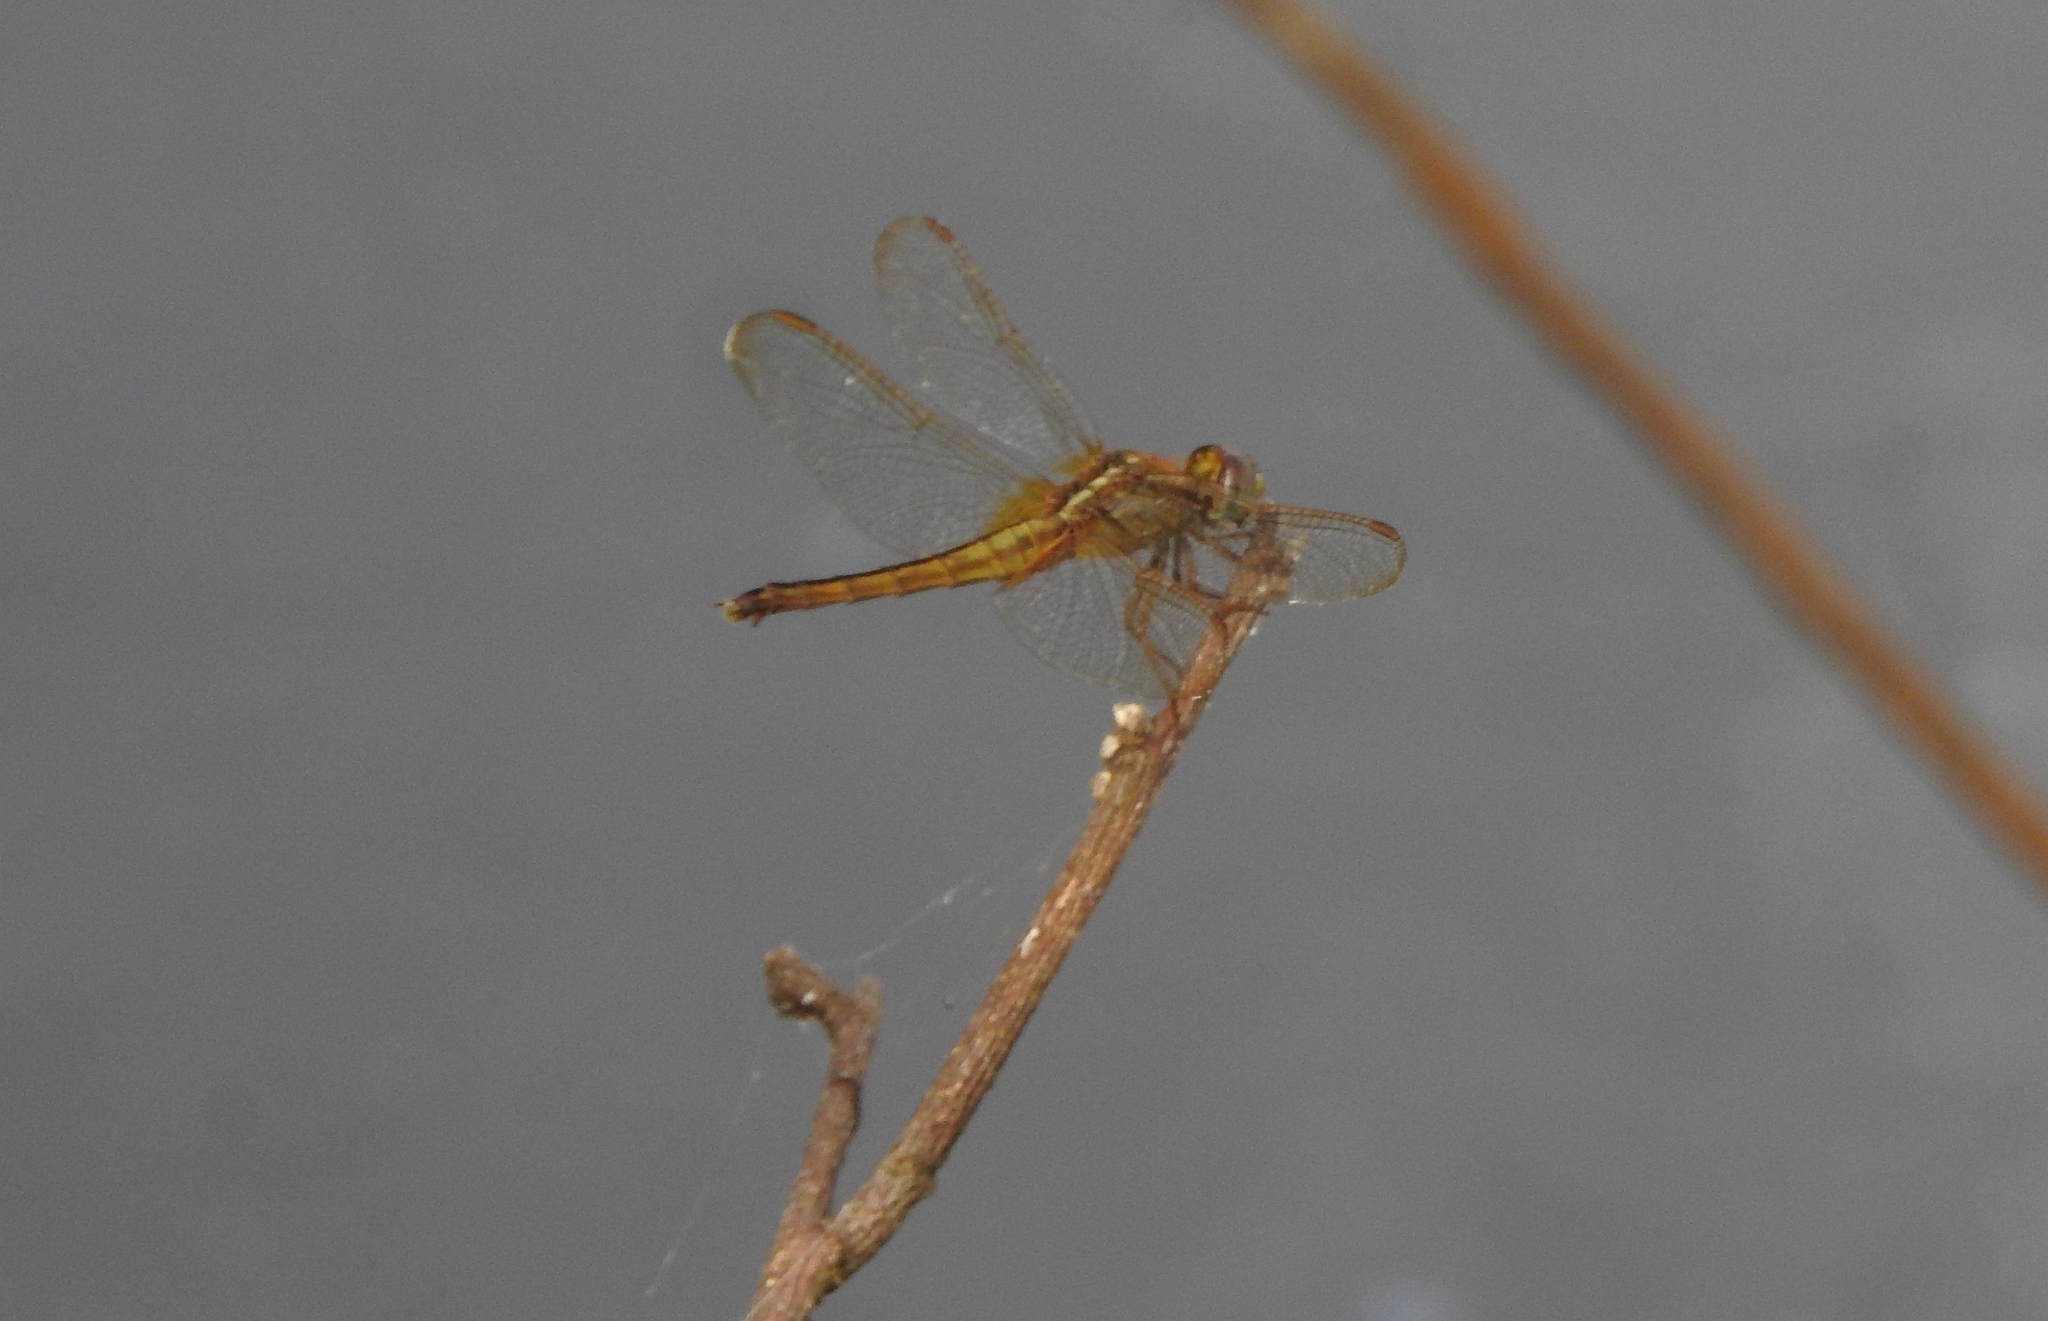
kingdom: Animalia
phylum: Arthropoda
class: Insecta
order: Odonata
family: Libellulidae
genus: Crocothemis
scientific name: Crocothemis servilia
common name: Scarlet skimmer
